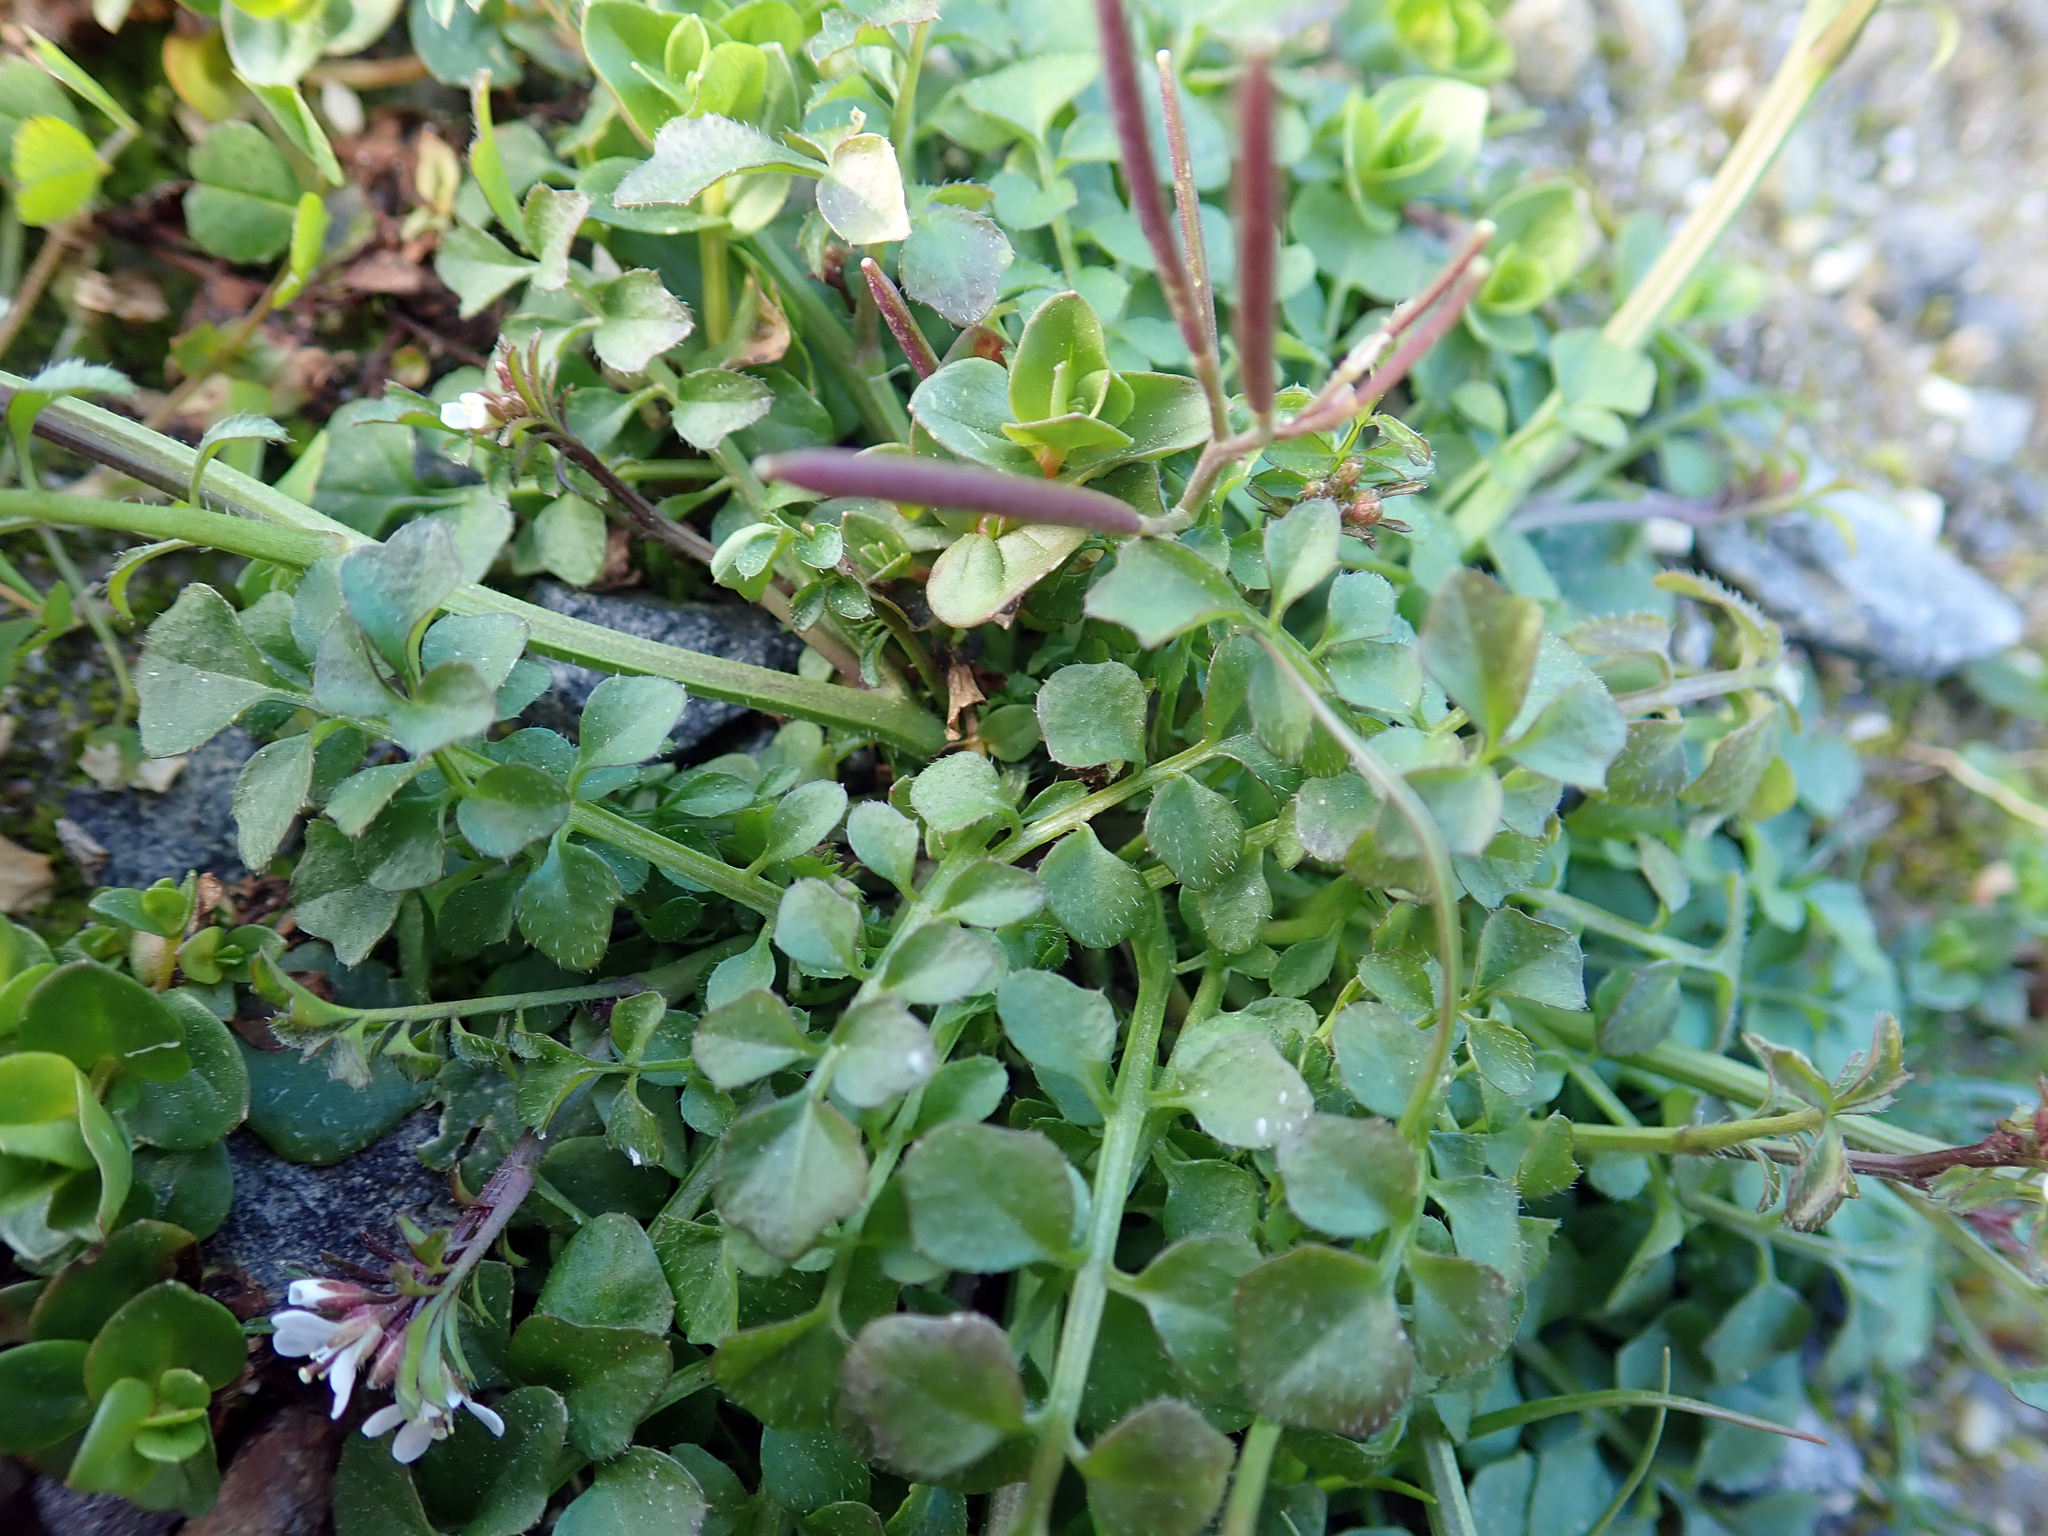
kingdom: Plantae
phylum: Tracheophyta
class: Magnoliopsida
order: Brassicales
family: Brassicaceae
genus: Cardamine
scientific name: Cardamine hirsuta
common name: Hairy bittercress
